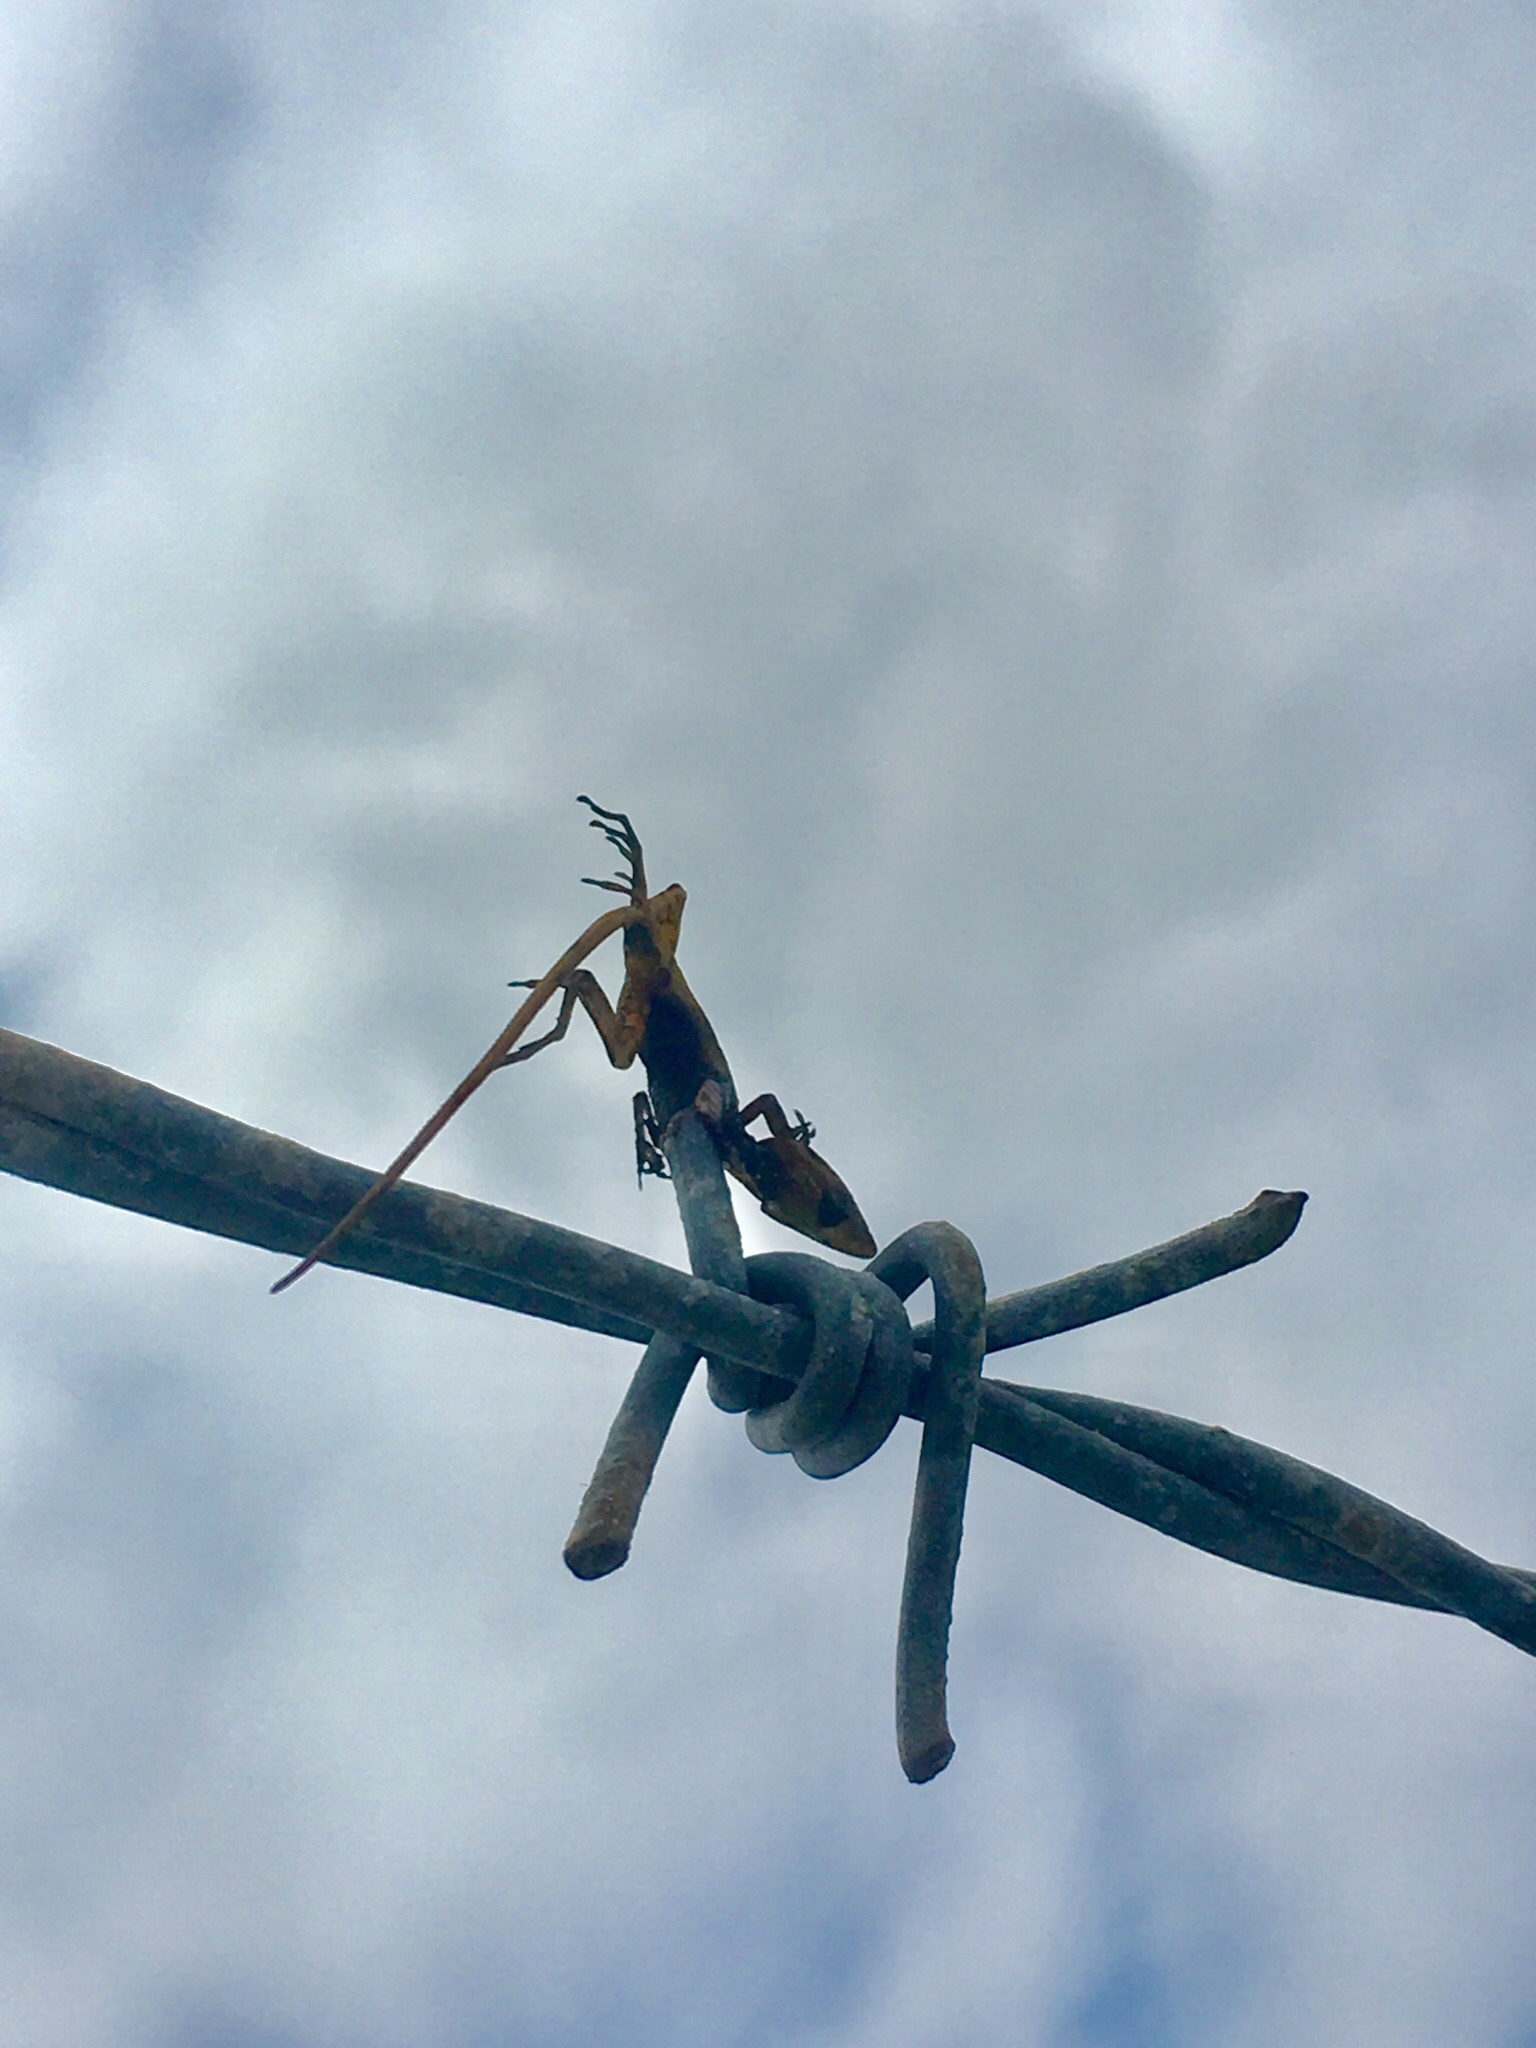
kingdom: Animalia
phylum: Chordata
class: Squamata
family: Dactyloidae
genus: Anolis
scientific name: Anolis carolinensis
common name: Green anole
